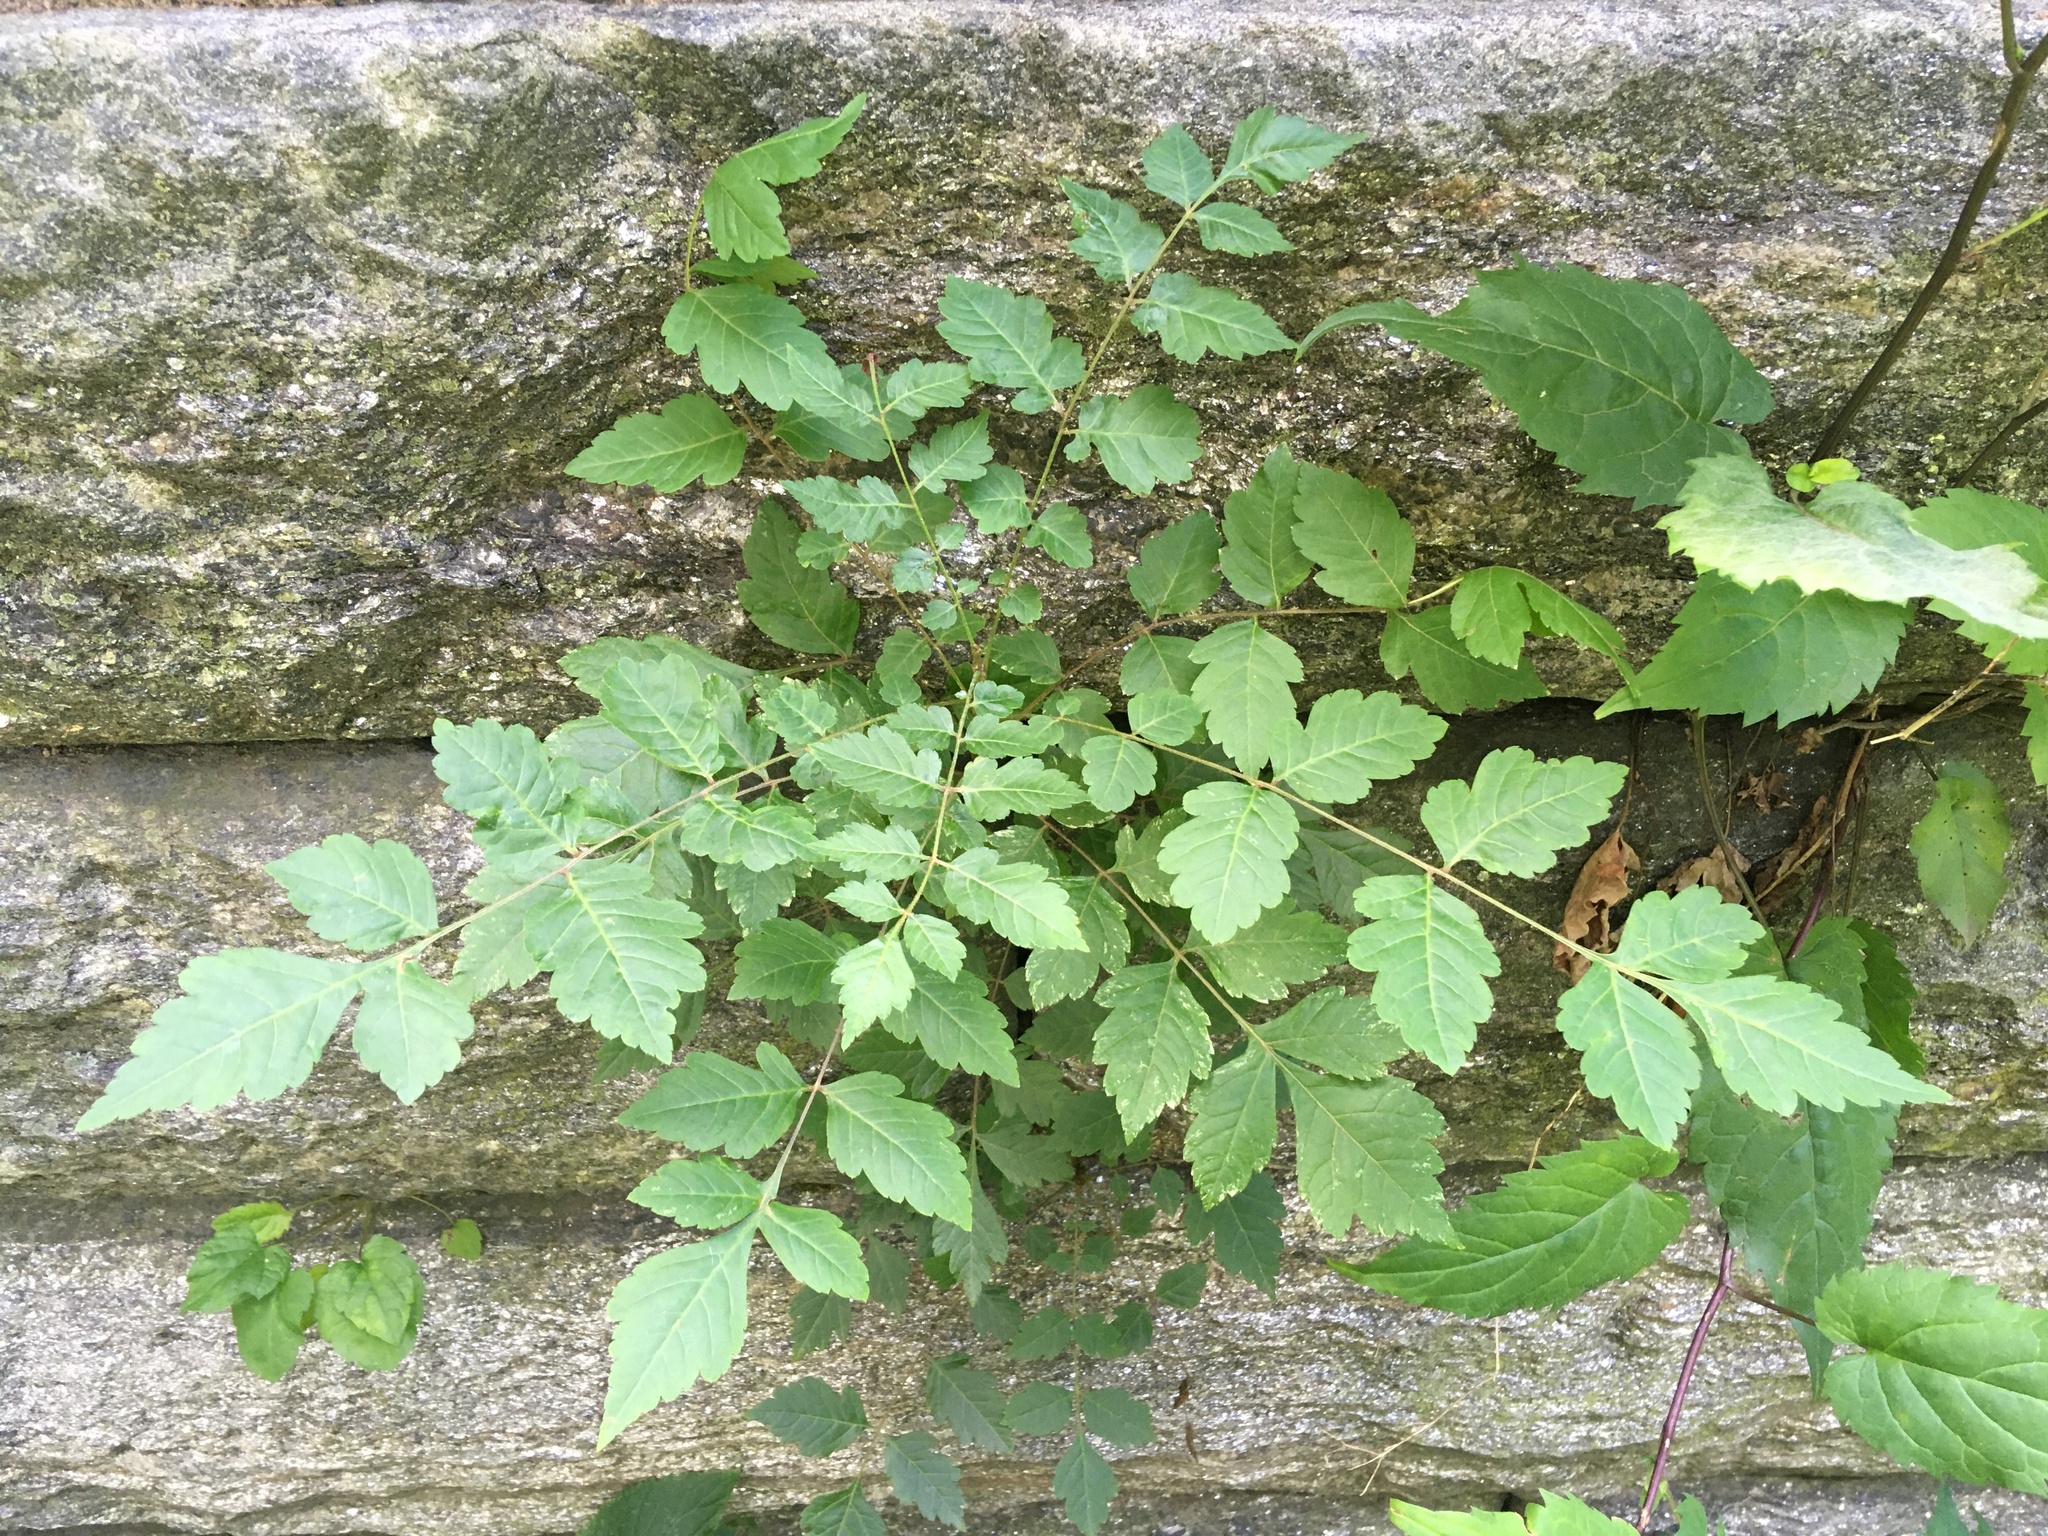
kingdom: Plantae
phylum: Tracheophyta
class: Magnoliopsida
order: Sapindales
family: Sapindaceae
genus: Koelreuteria
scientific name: Koelreuteria paniculata
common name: Pride-of-india
